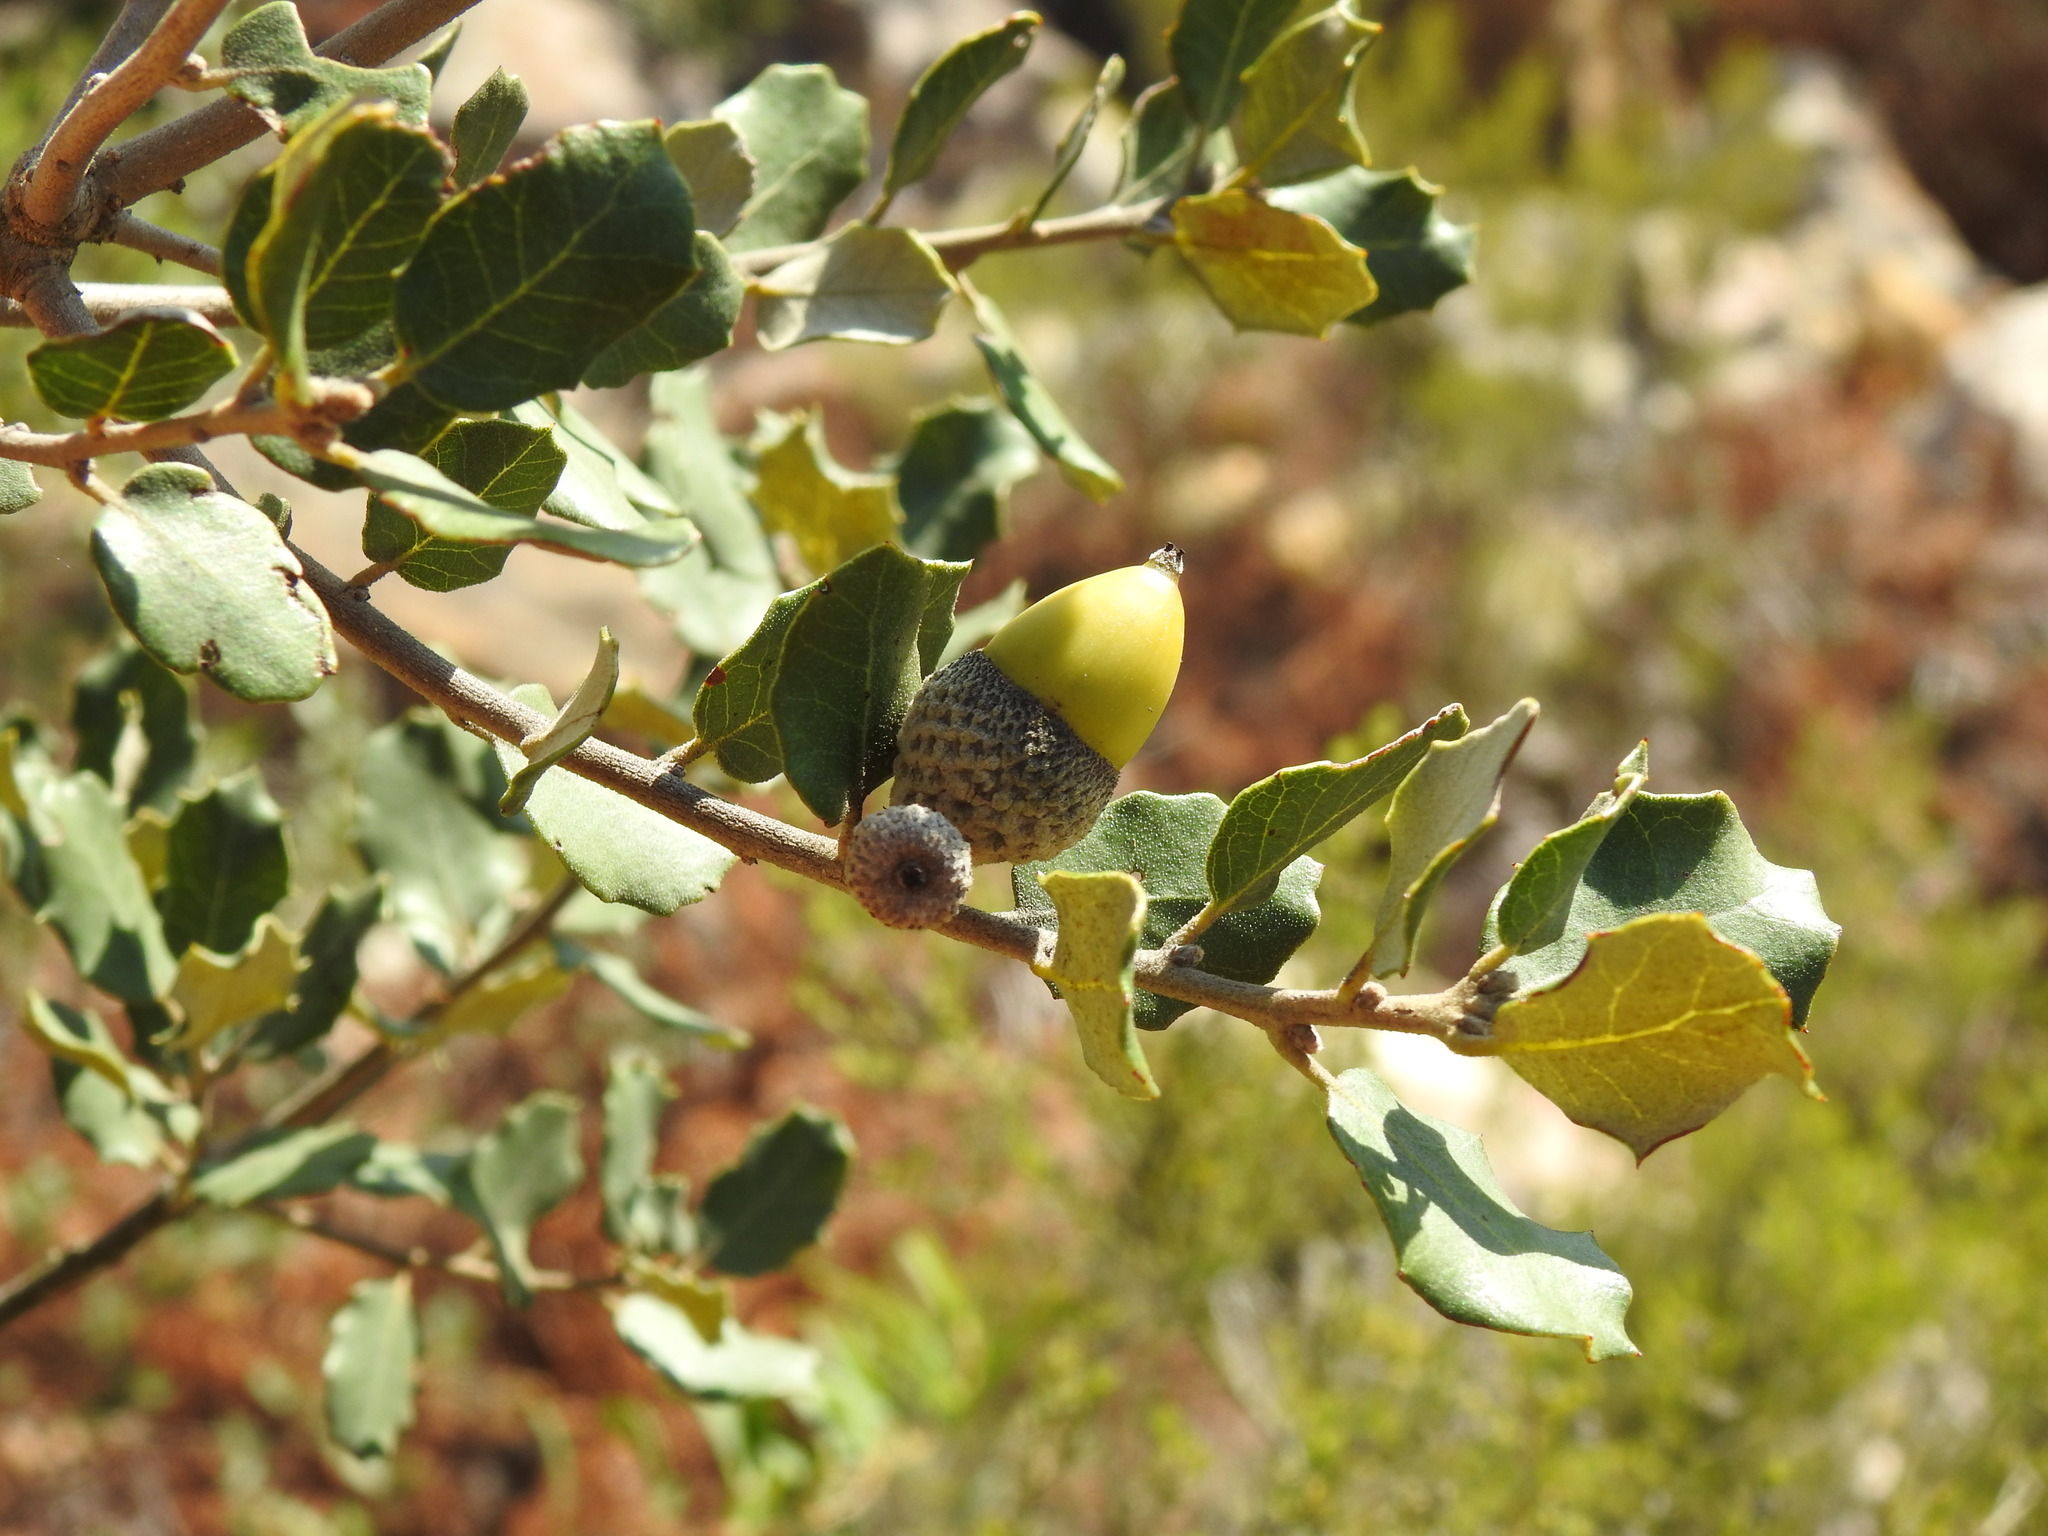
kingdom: Plantae
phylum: Tracheophyta
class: Magnoliopsida
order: Fagales
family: Fagaceae
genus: Quercus
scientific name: Quercus rotundifolia
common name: Holm oak
